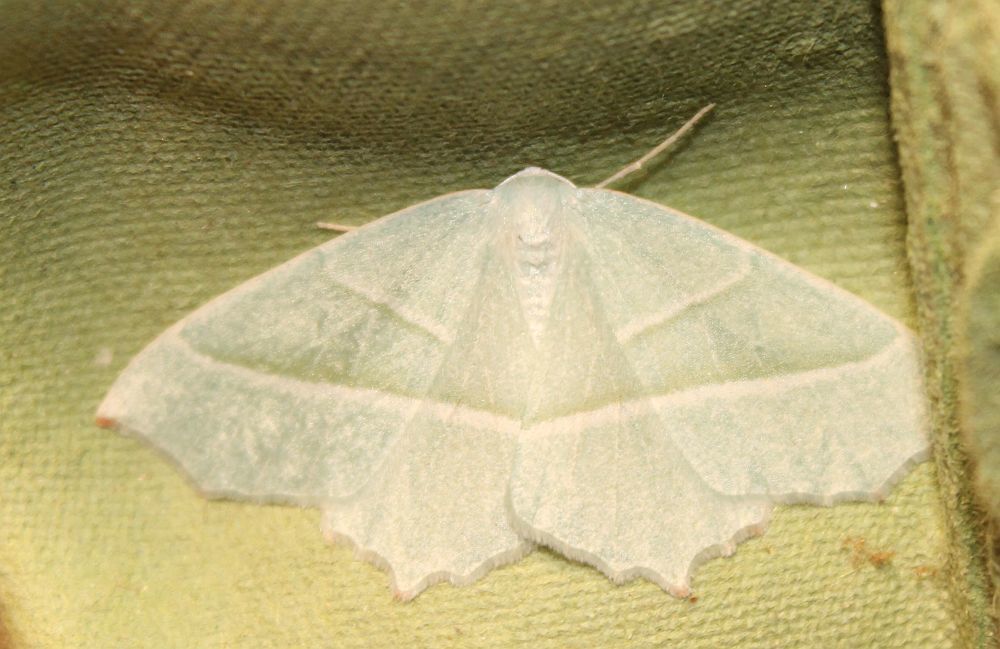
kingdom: Animalia
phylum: Arthropoda
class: Insecta
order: Lepidoptera
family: Geometridae
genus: Campaea
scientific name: Campaea margaritaria
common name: Light emerald
